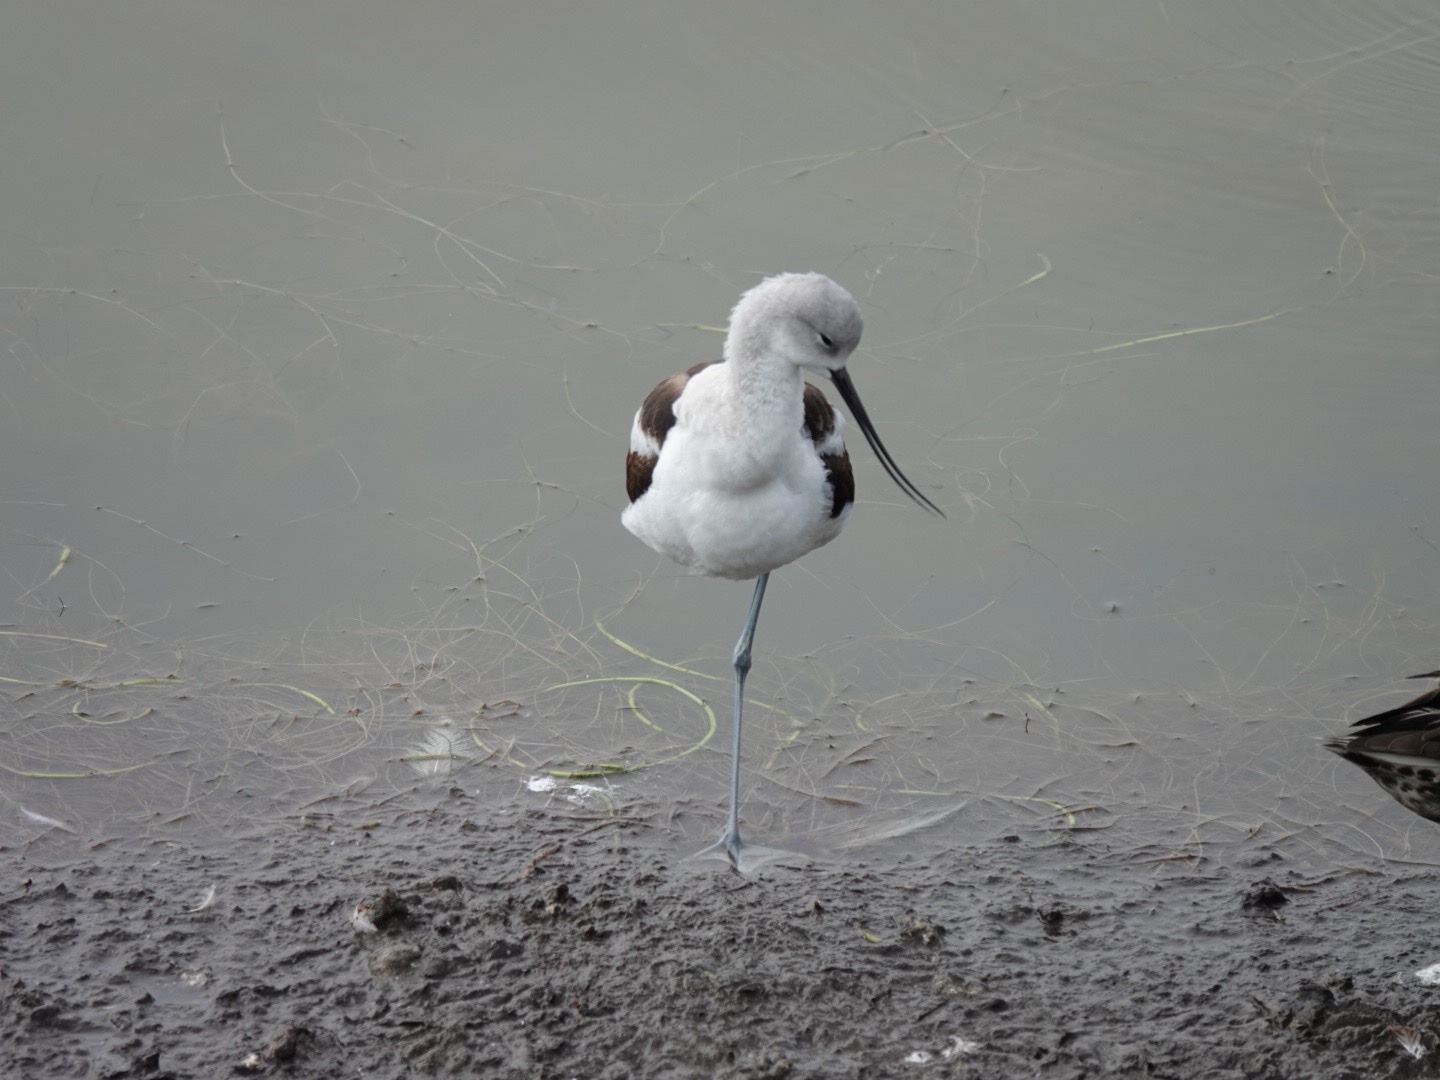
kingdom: Animalia
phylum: Chordata
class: Aves
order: Charadriiformes
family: Recurvirostridae
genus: Recurvirostra
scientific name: Recurvirostra americana
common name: American avocet
